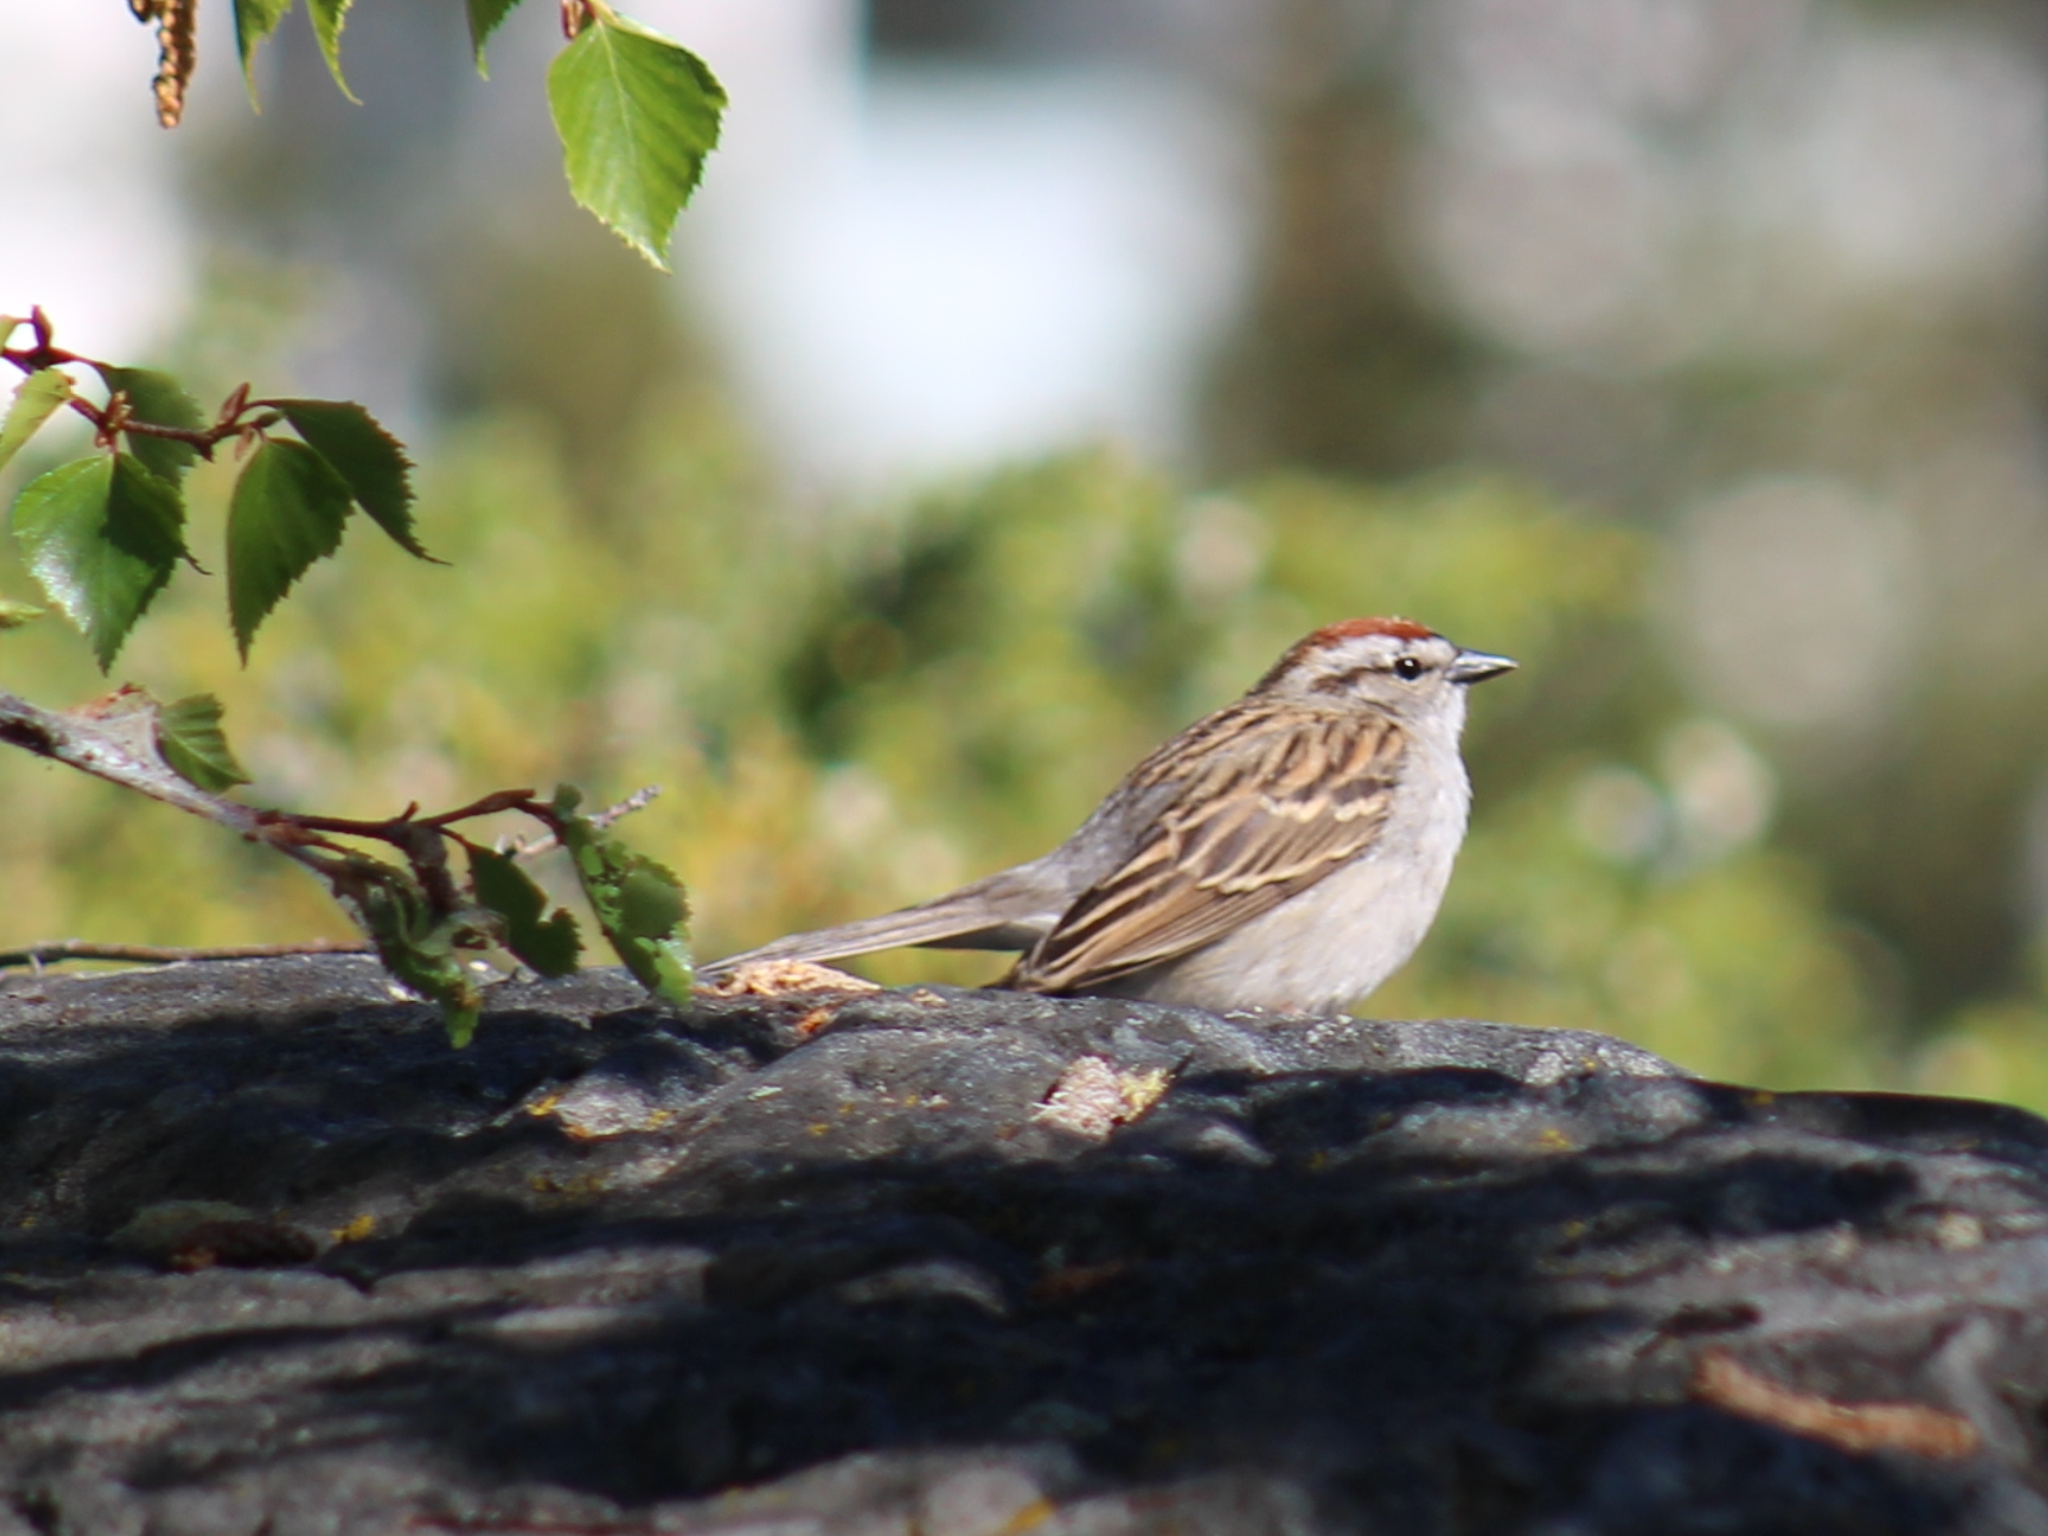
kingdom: Animalia
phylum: Chordata
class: Aves
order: Passeriformes
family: Passerellidae
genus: Spizella
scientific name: Spizella passerina
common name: Chipping sparrow
